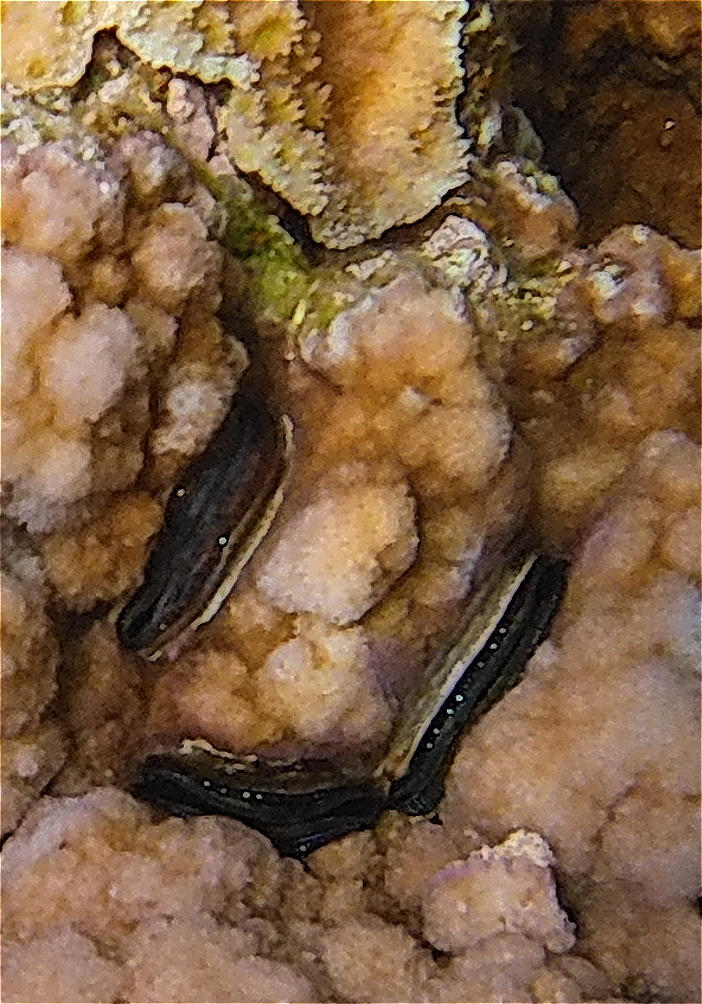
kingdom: Animalia
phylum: Mollusca
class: Bivalvia
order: Pectinida
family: Pectinidae
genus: Pedum
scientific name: Pedum spondyloideum
